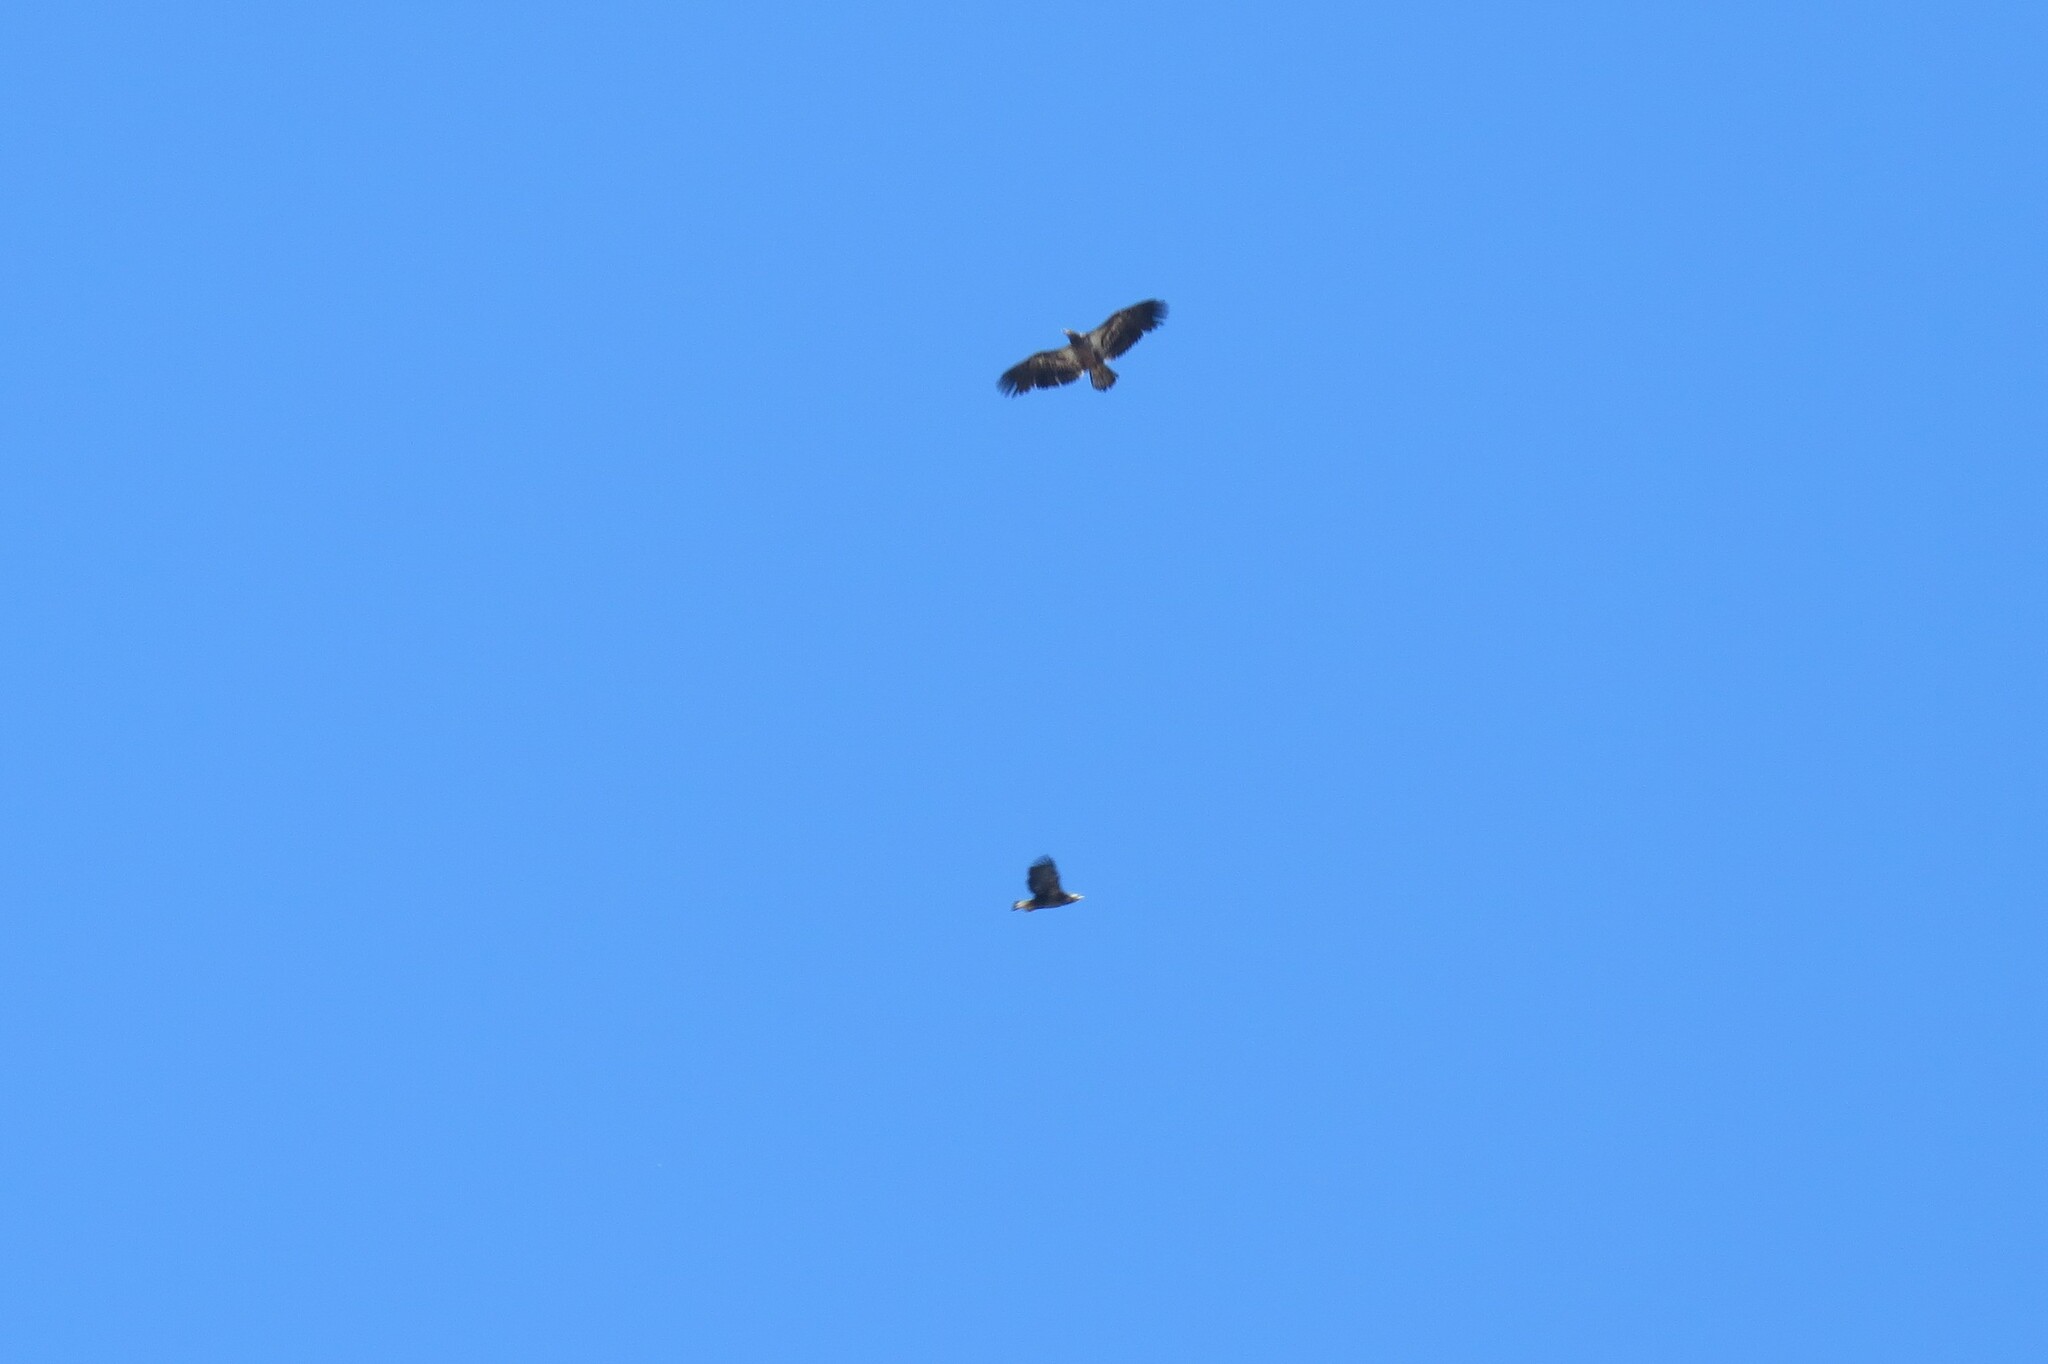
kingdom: Animalia
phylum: Chordata
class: Aves
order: Accipitriformes
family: Accipitridae
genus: Haliaeetus
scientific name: Haliaeetus leucocephalus
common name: Bald eagle
